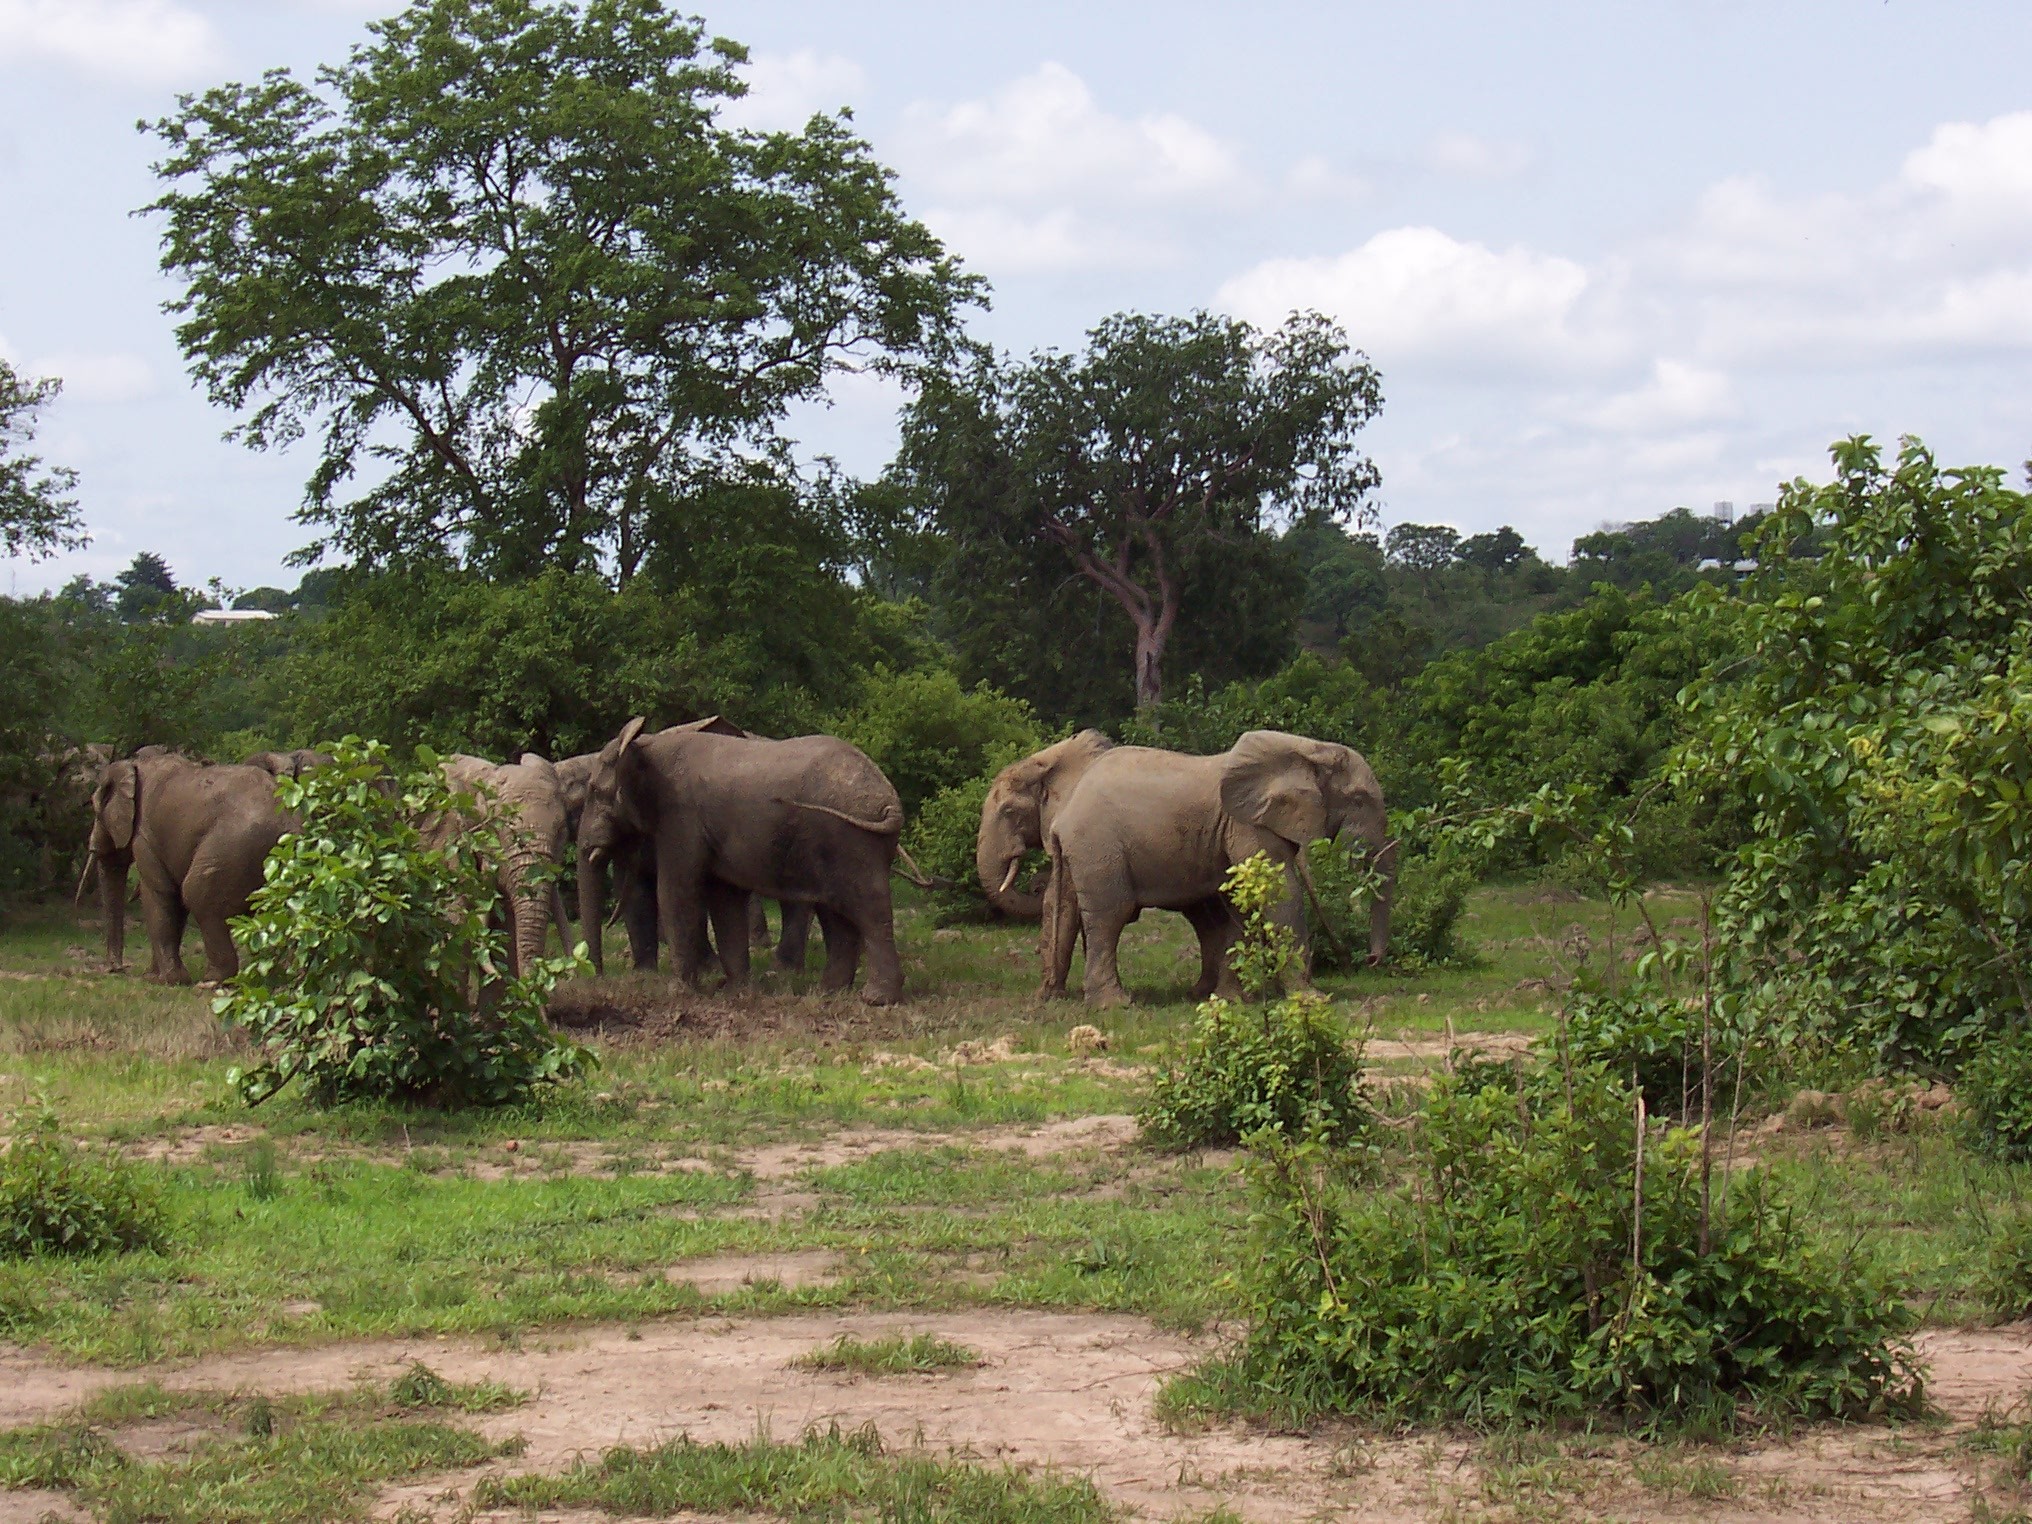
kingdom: Animalia
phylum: Chordata
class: Mammalia
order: Proboscidea
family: Elephantidae
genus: Loxodonta
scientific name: Loxodonta
